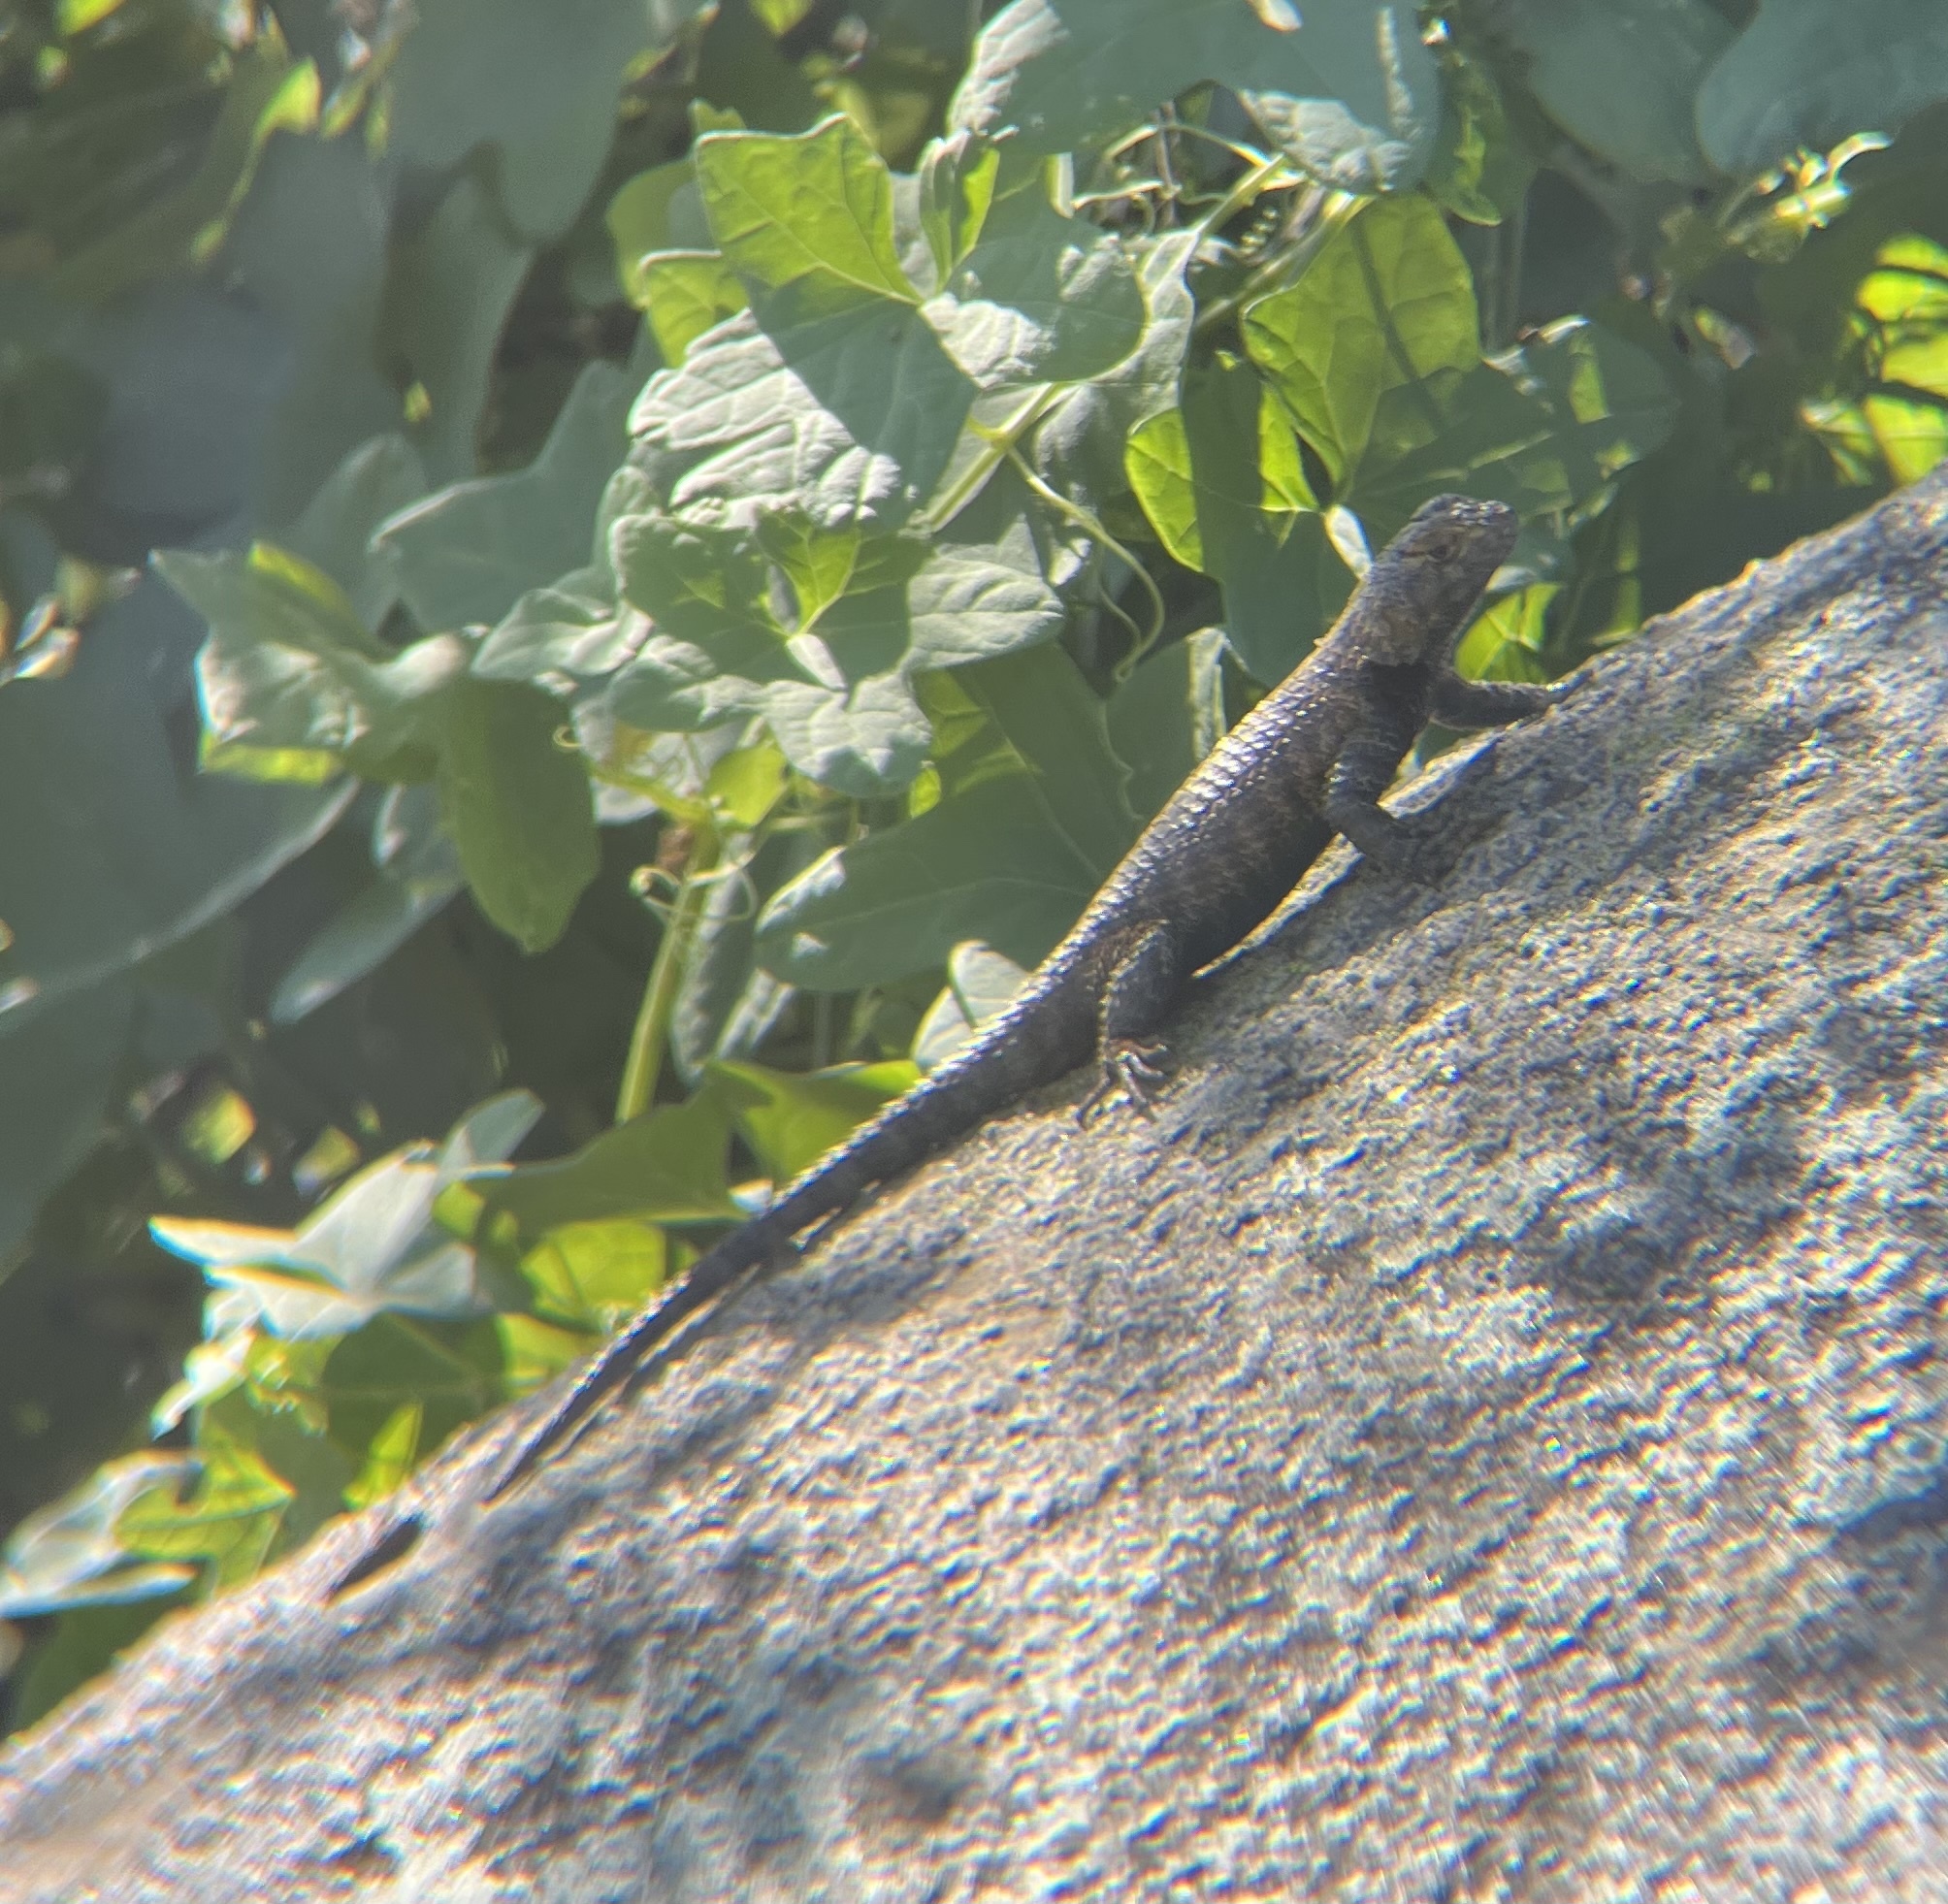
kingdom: Animalia
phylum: Chordata
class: Squamata
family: Phrynosomatidae
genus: Sceloporus
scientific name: Sceloporus orcutti
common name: Granite spiny lizard
